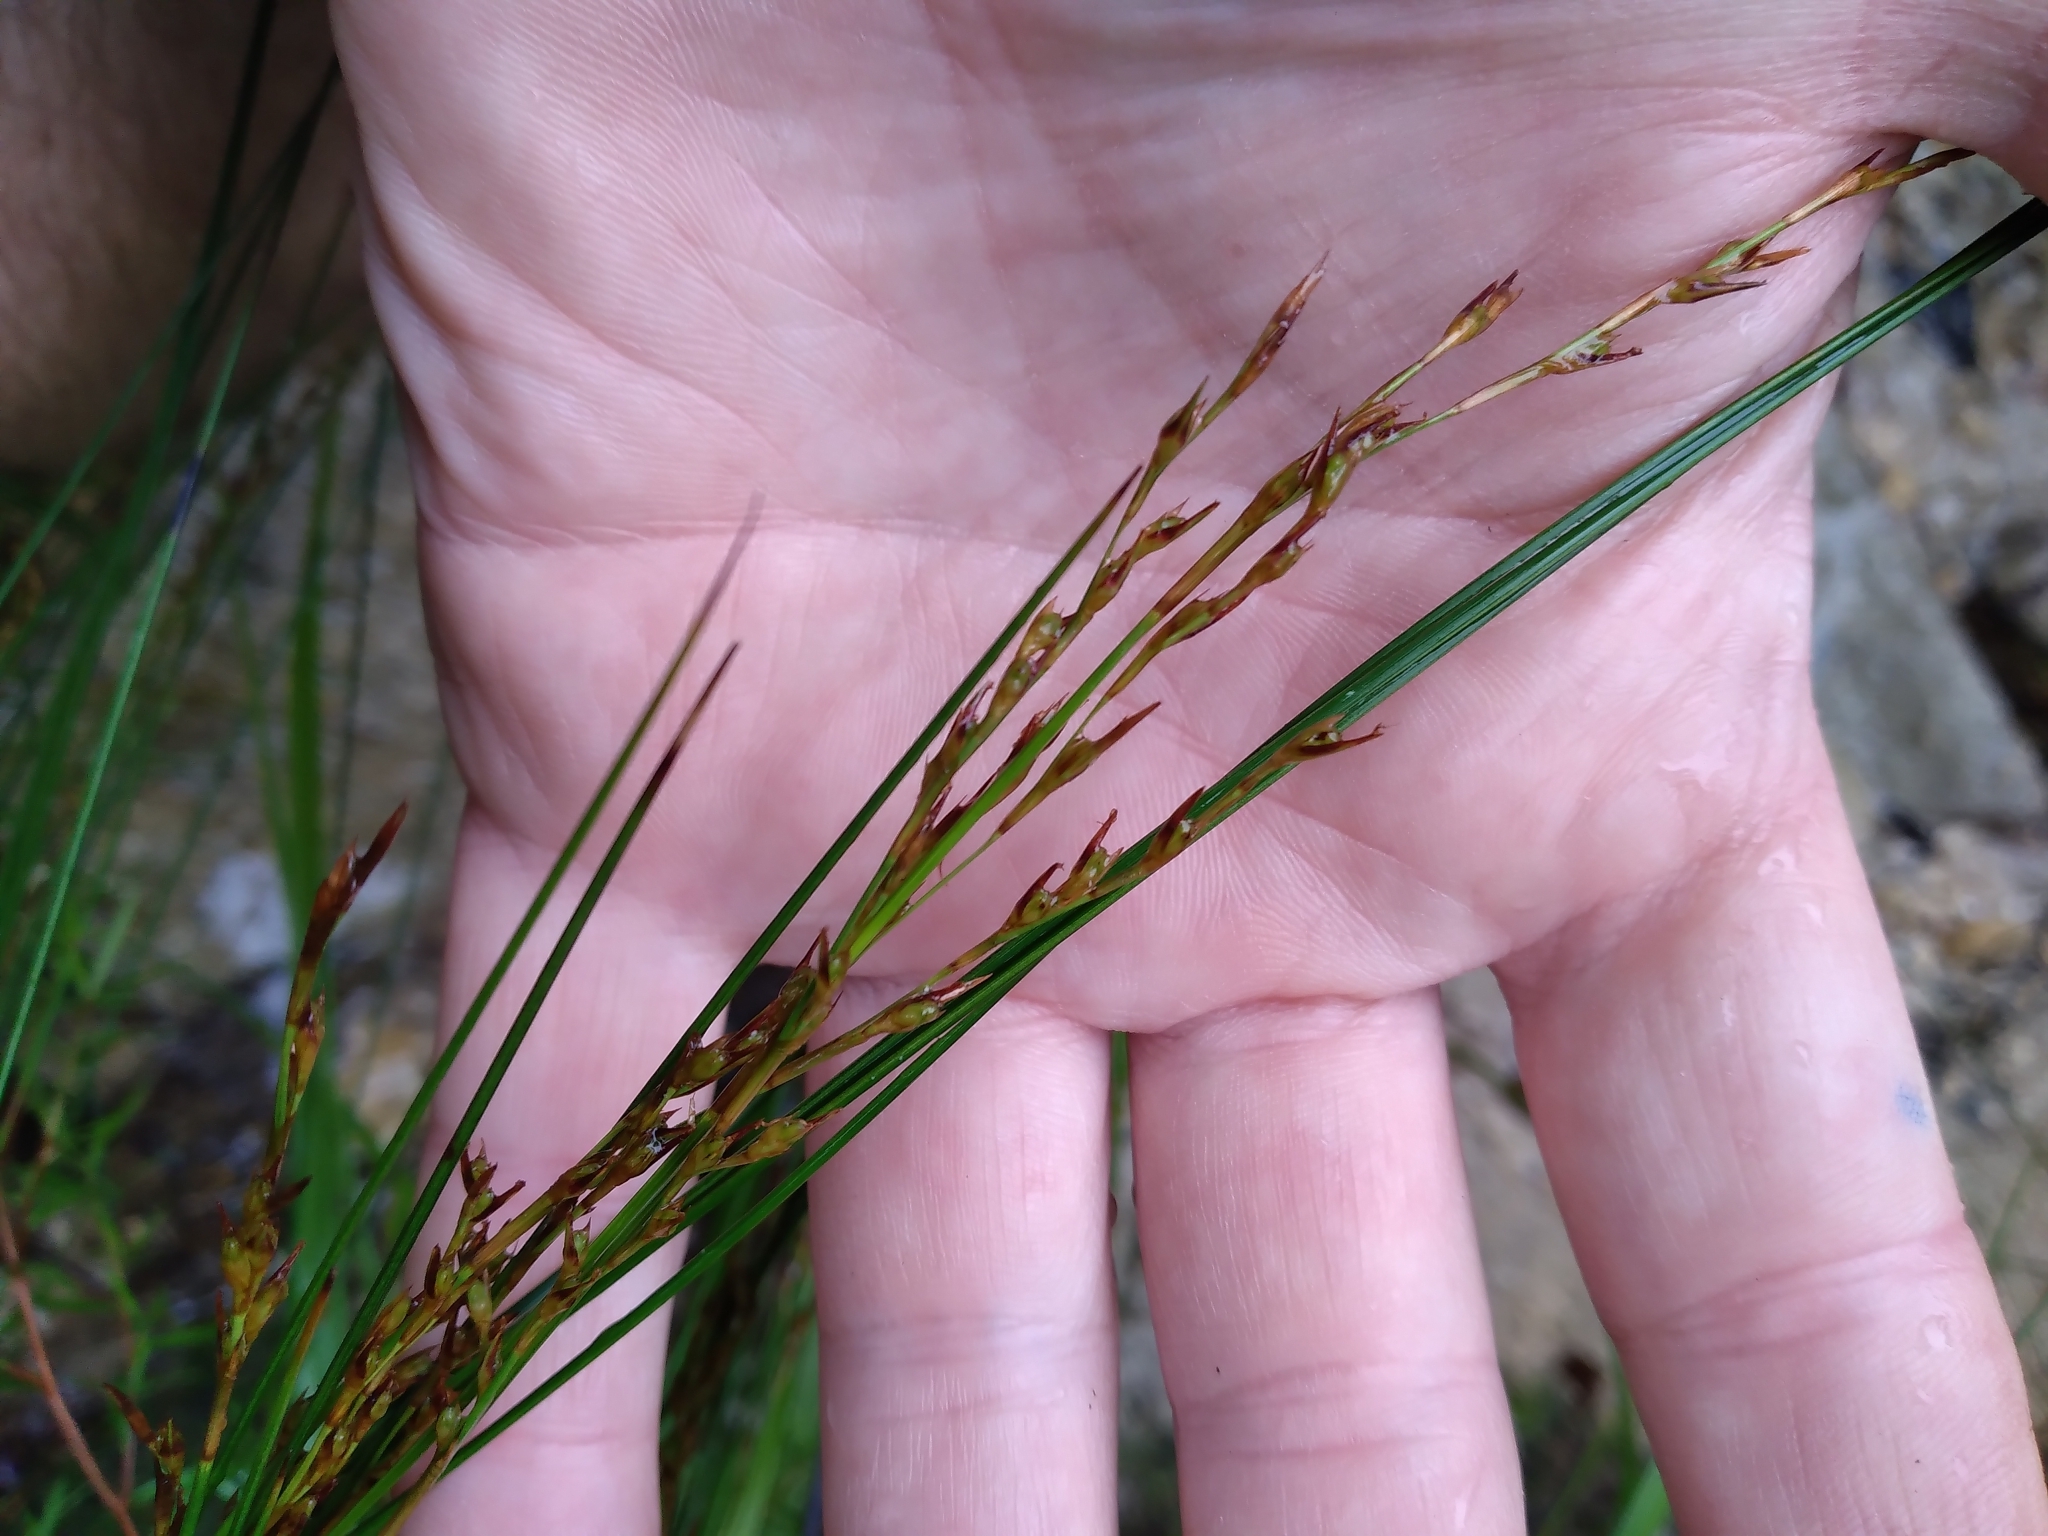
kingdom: Plantae
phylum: Tracheophyta
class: Liliopsida
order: Poales
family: Cyperaceae
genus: Machaerina
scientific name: Machaerina tenax
